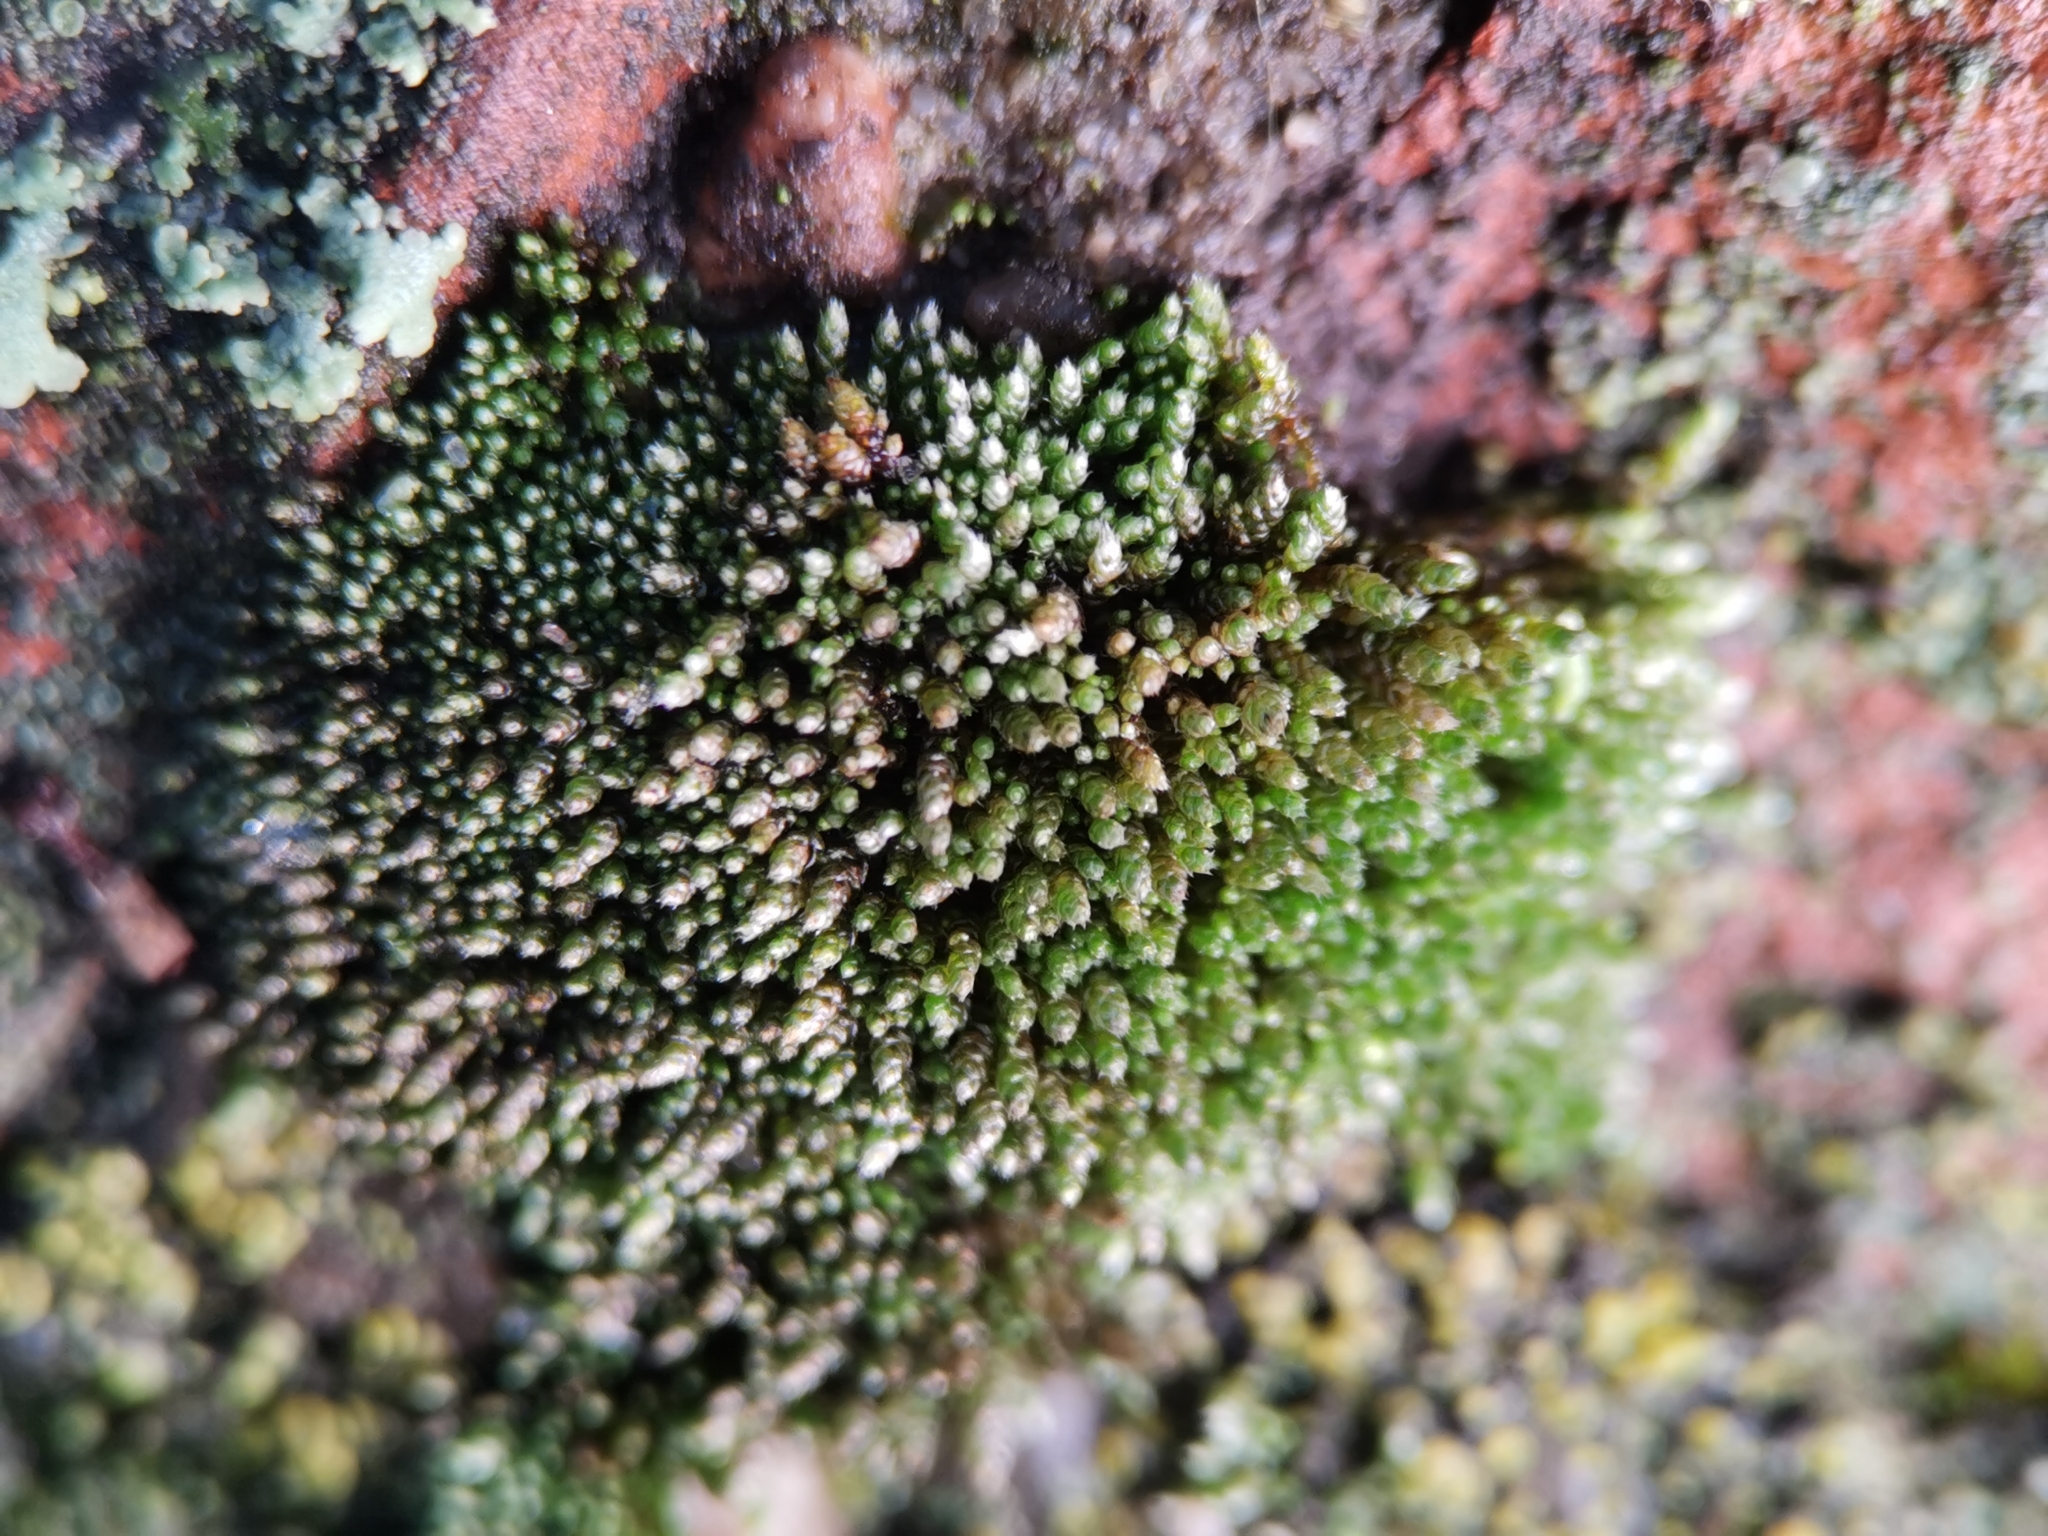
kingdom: Plantae
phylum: Bryophyta
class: Bryopsida
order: Bryales
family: Bryaceae
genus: Bryum
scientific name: Bryum argenteum
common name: Silver-moss
